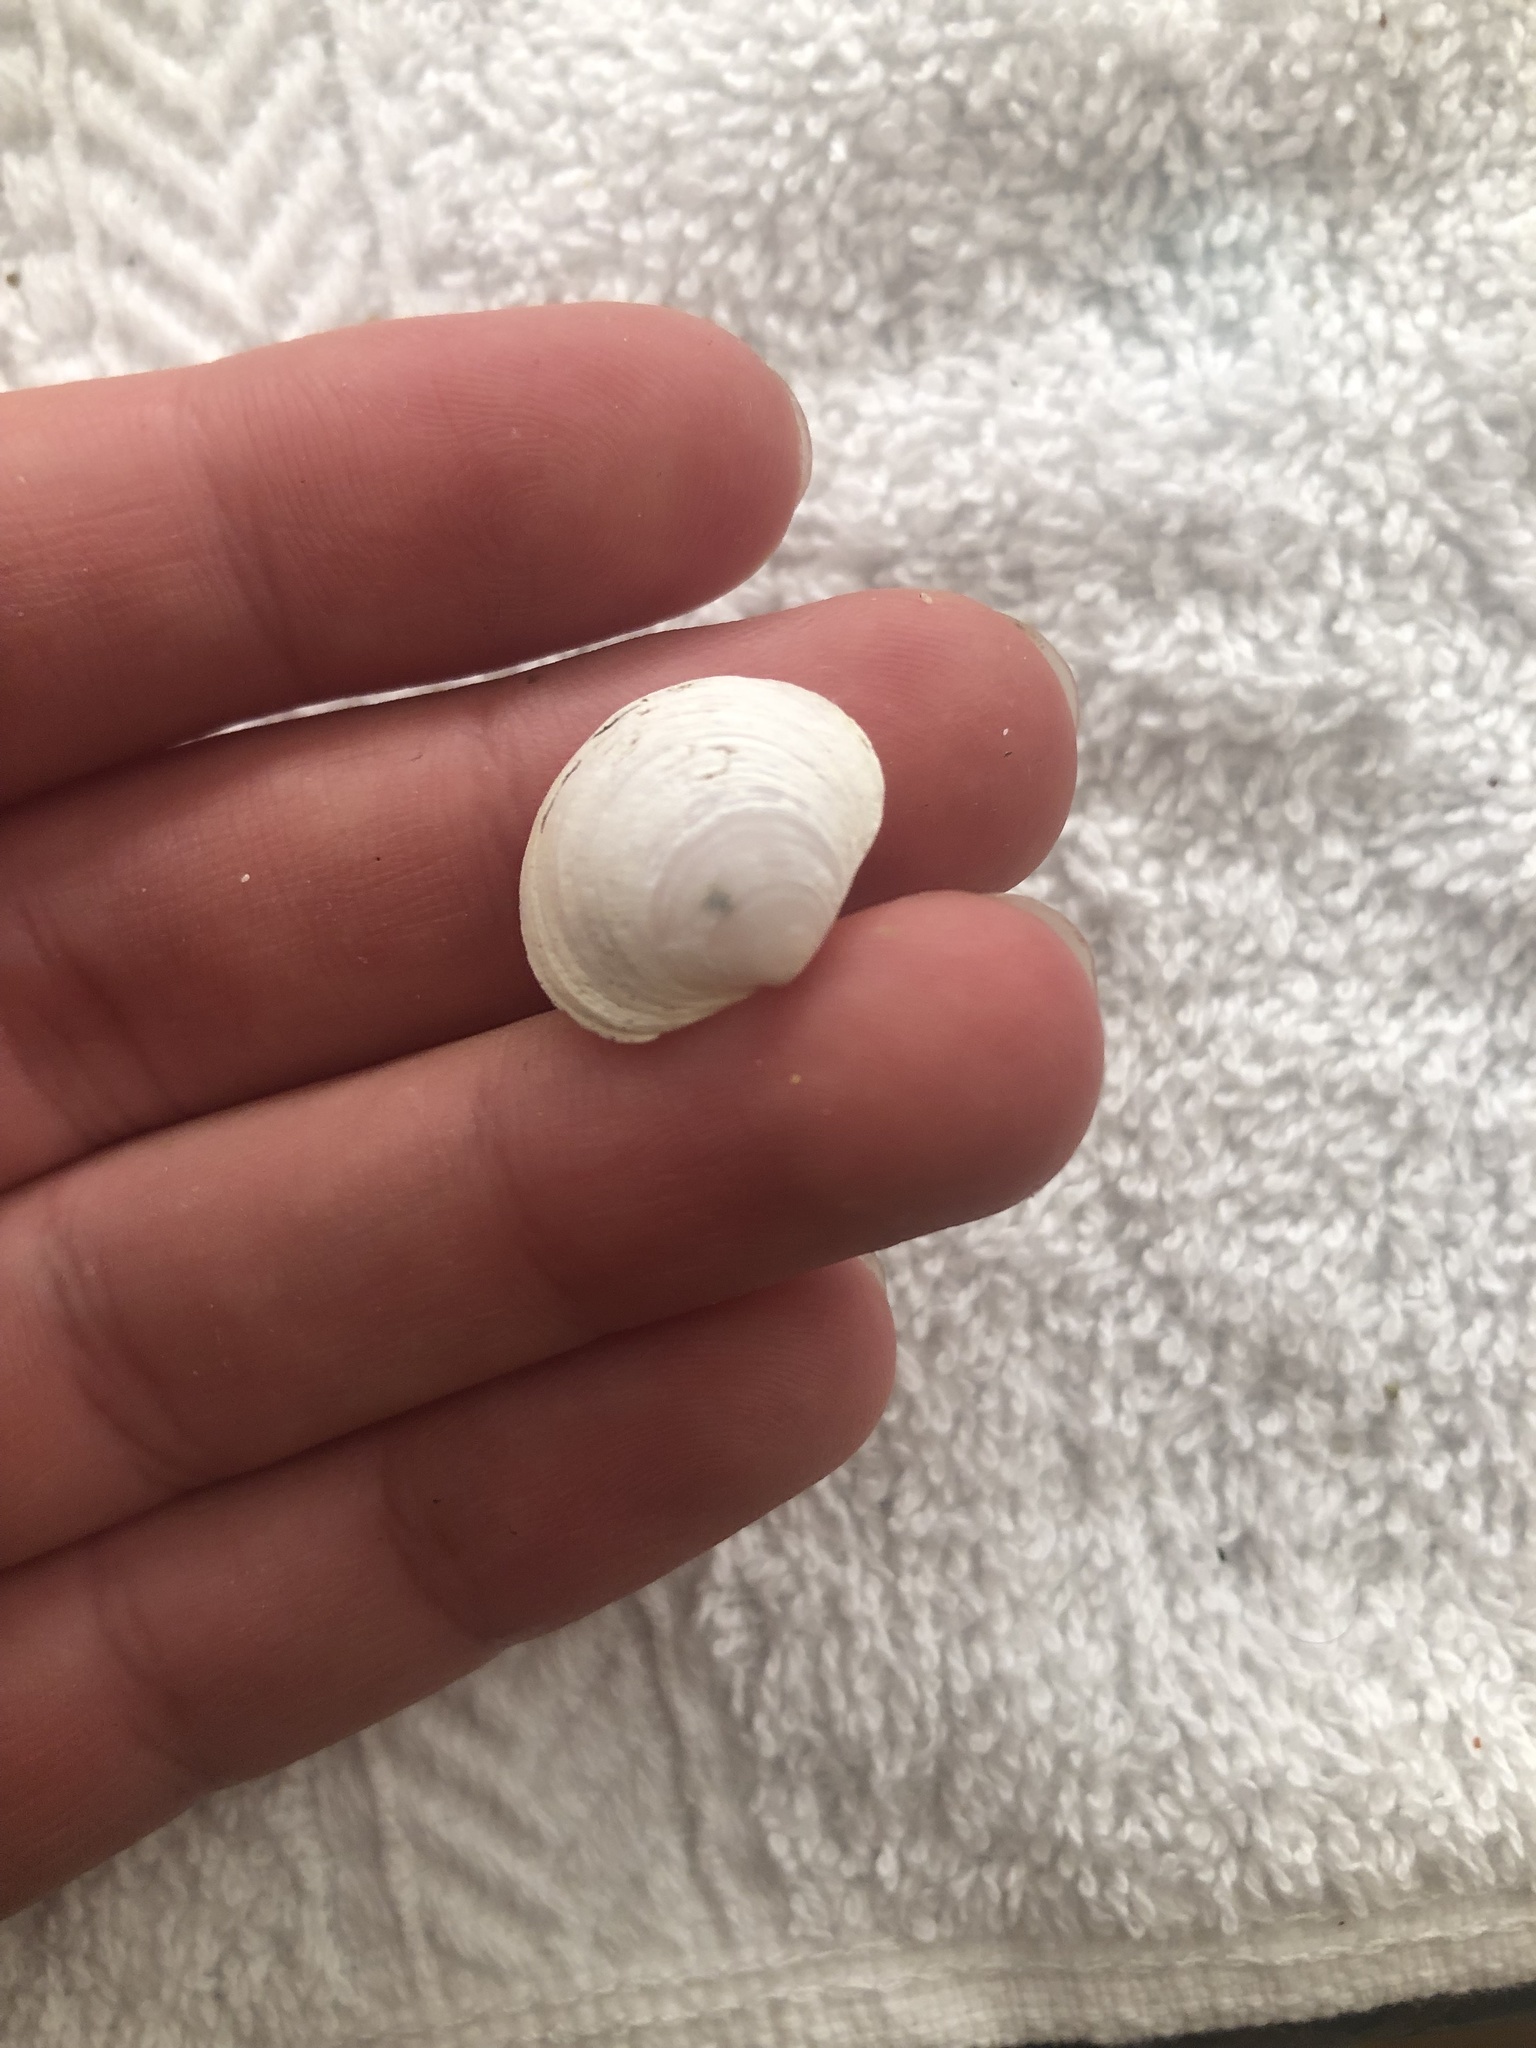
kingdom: Animalia
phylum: Mollusca
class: Bivalvia
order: Venerida
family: Ungulinidae
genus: Zemysina
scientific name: Zemysina orbella
